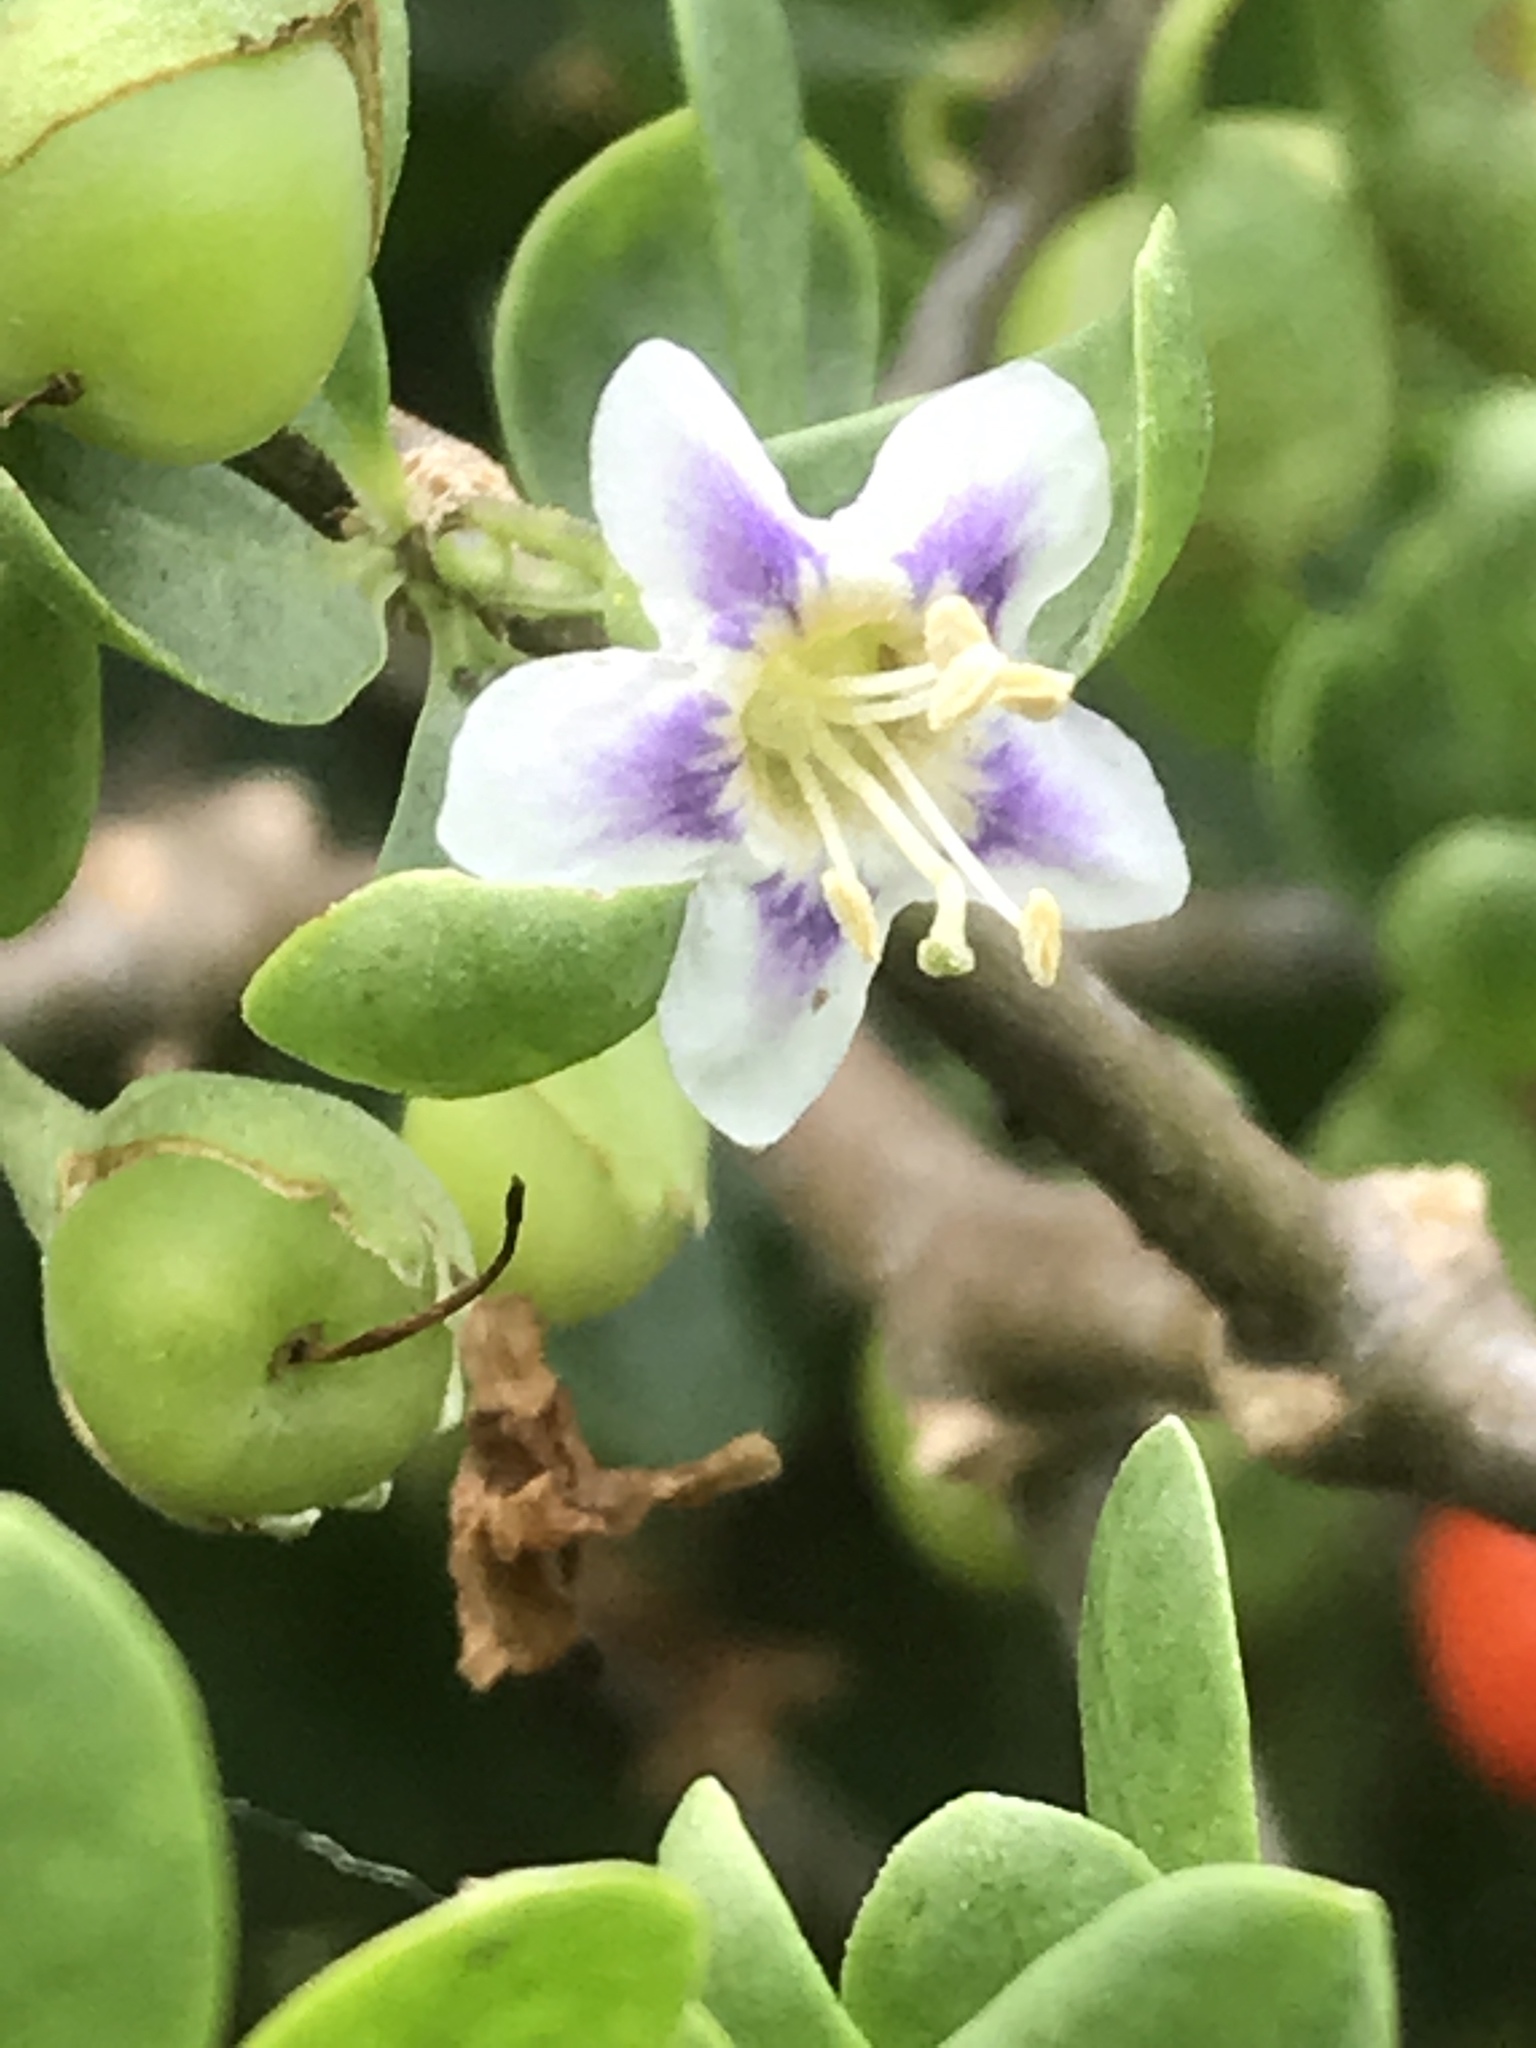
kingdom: Plantae
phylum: Tracheophyta
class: Magnoliopsida
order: Solanales
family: Solanaceae
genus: Lycium
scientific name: Lycium ferocissimum
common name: African boxthorn
